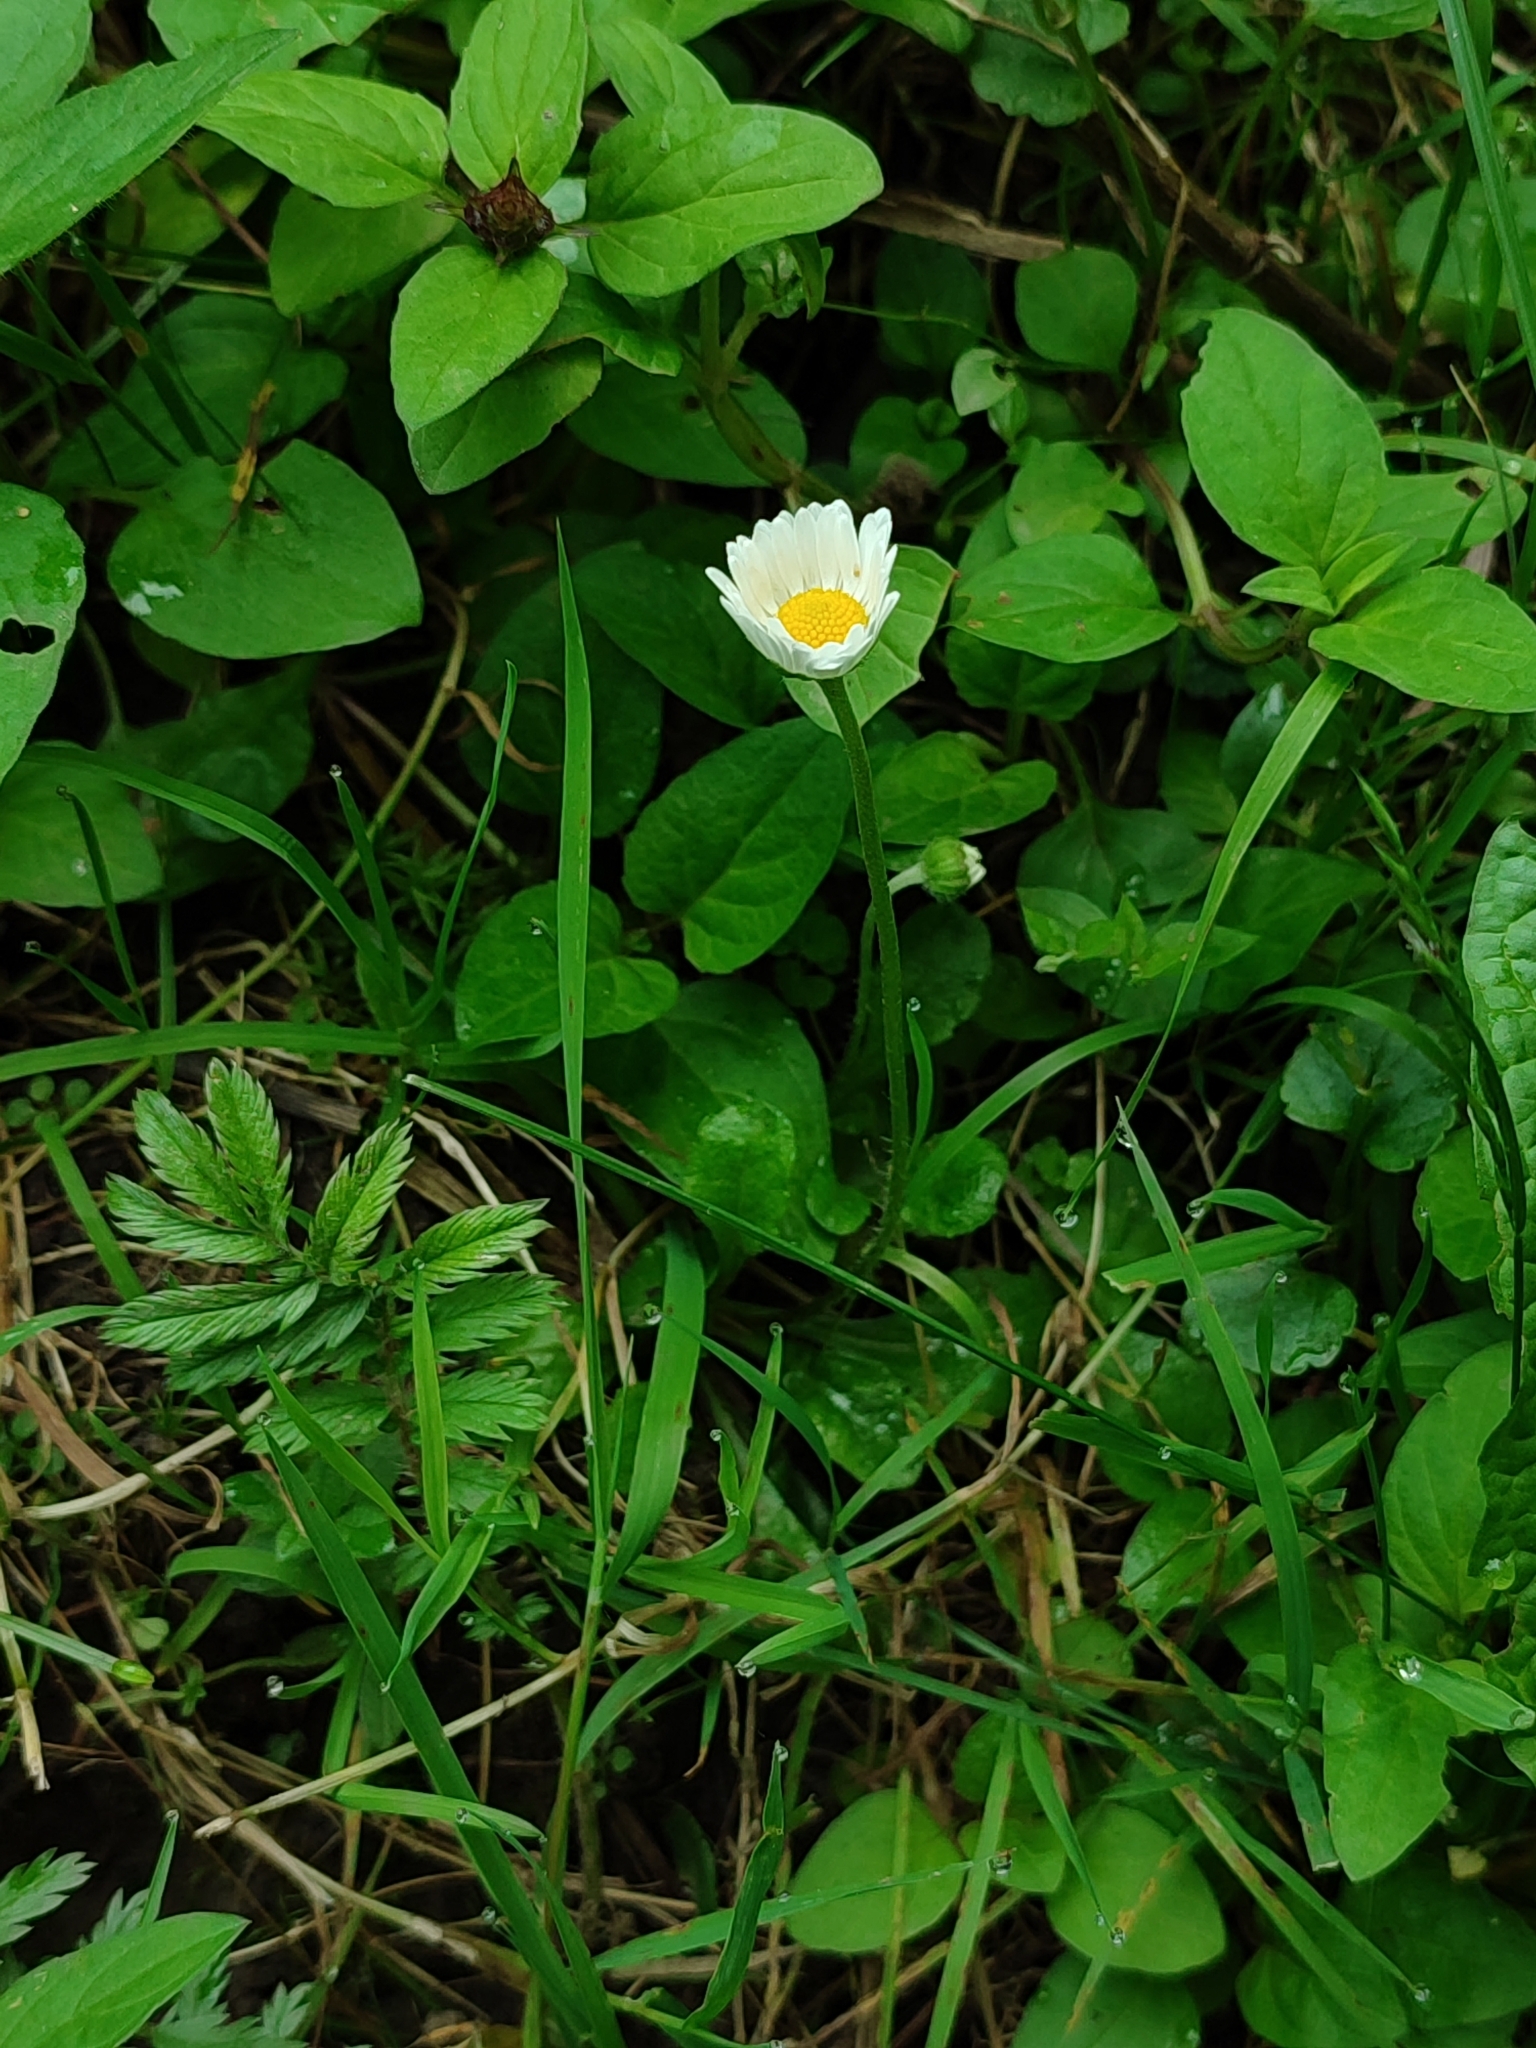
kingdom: Plantae
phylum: Tracheophyta
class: Magnoliopsida
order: Asterales
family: Asteraceae
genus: Bellis
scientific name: Bellis perennis
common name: Lawndaisy
